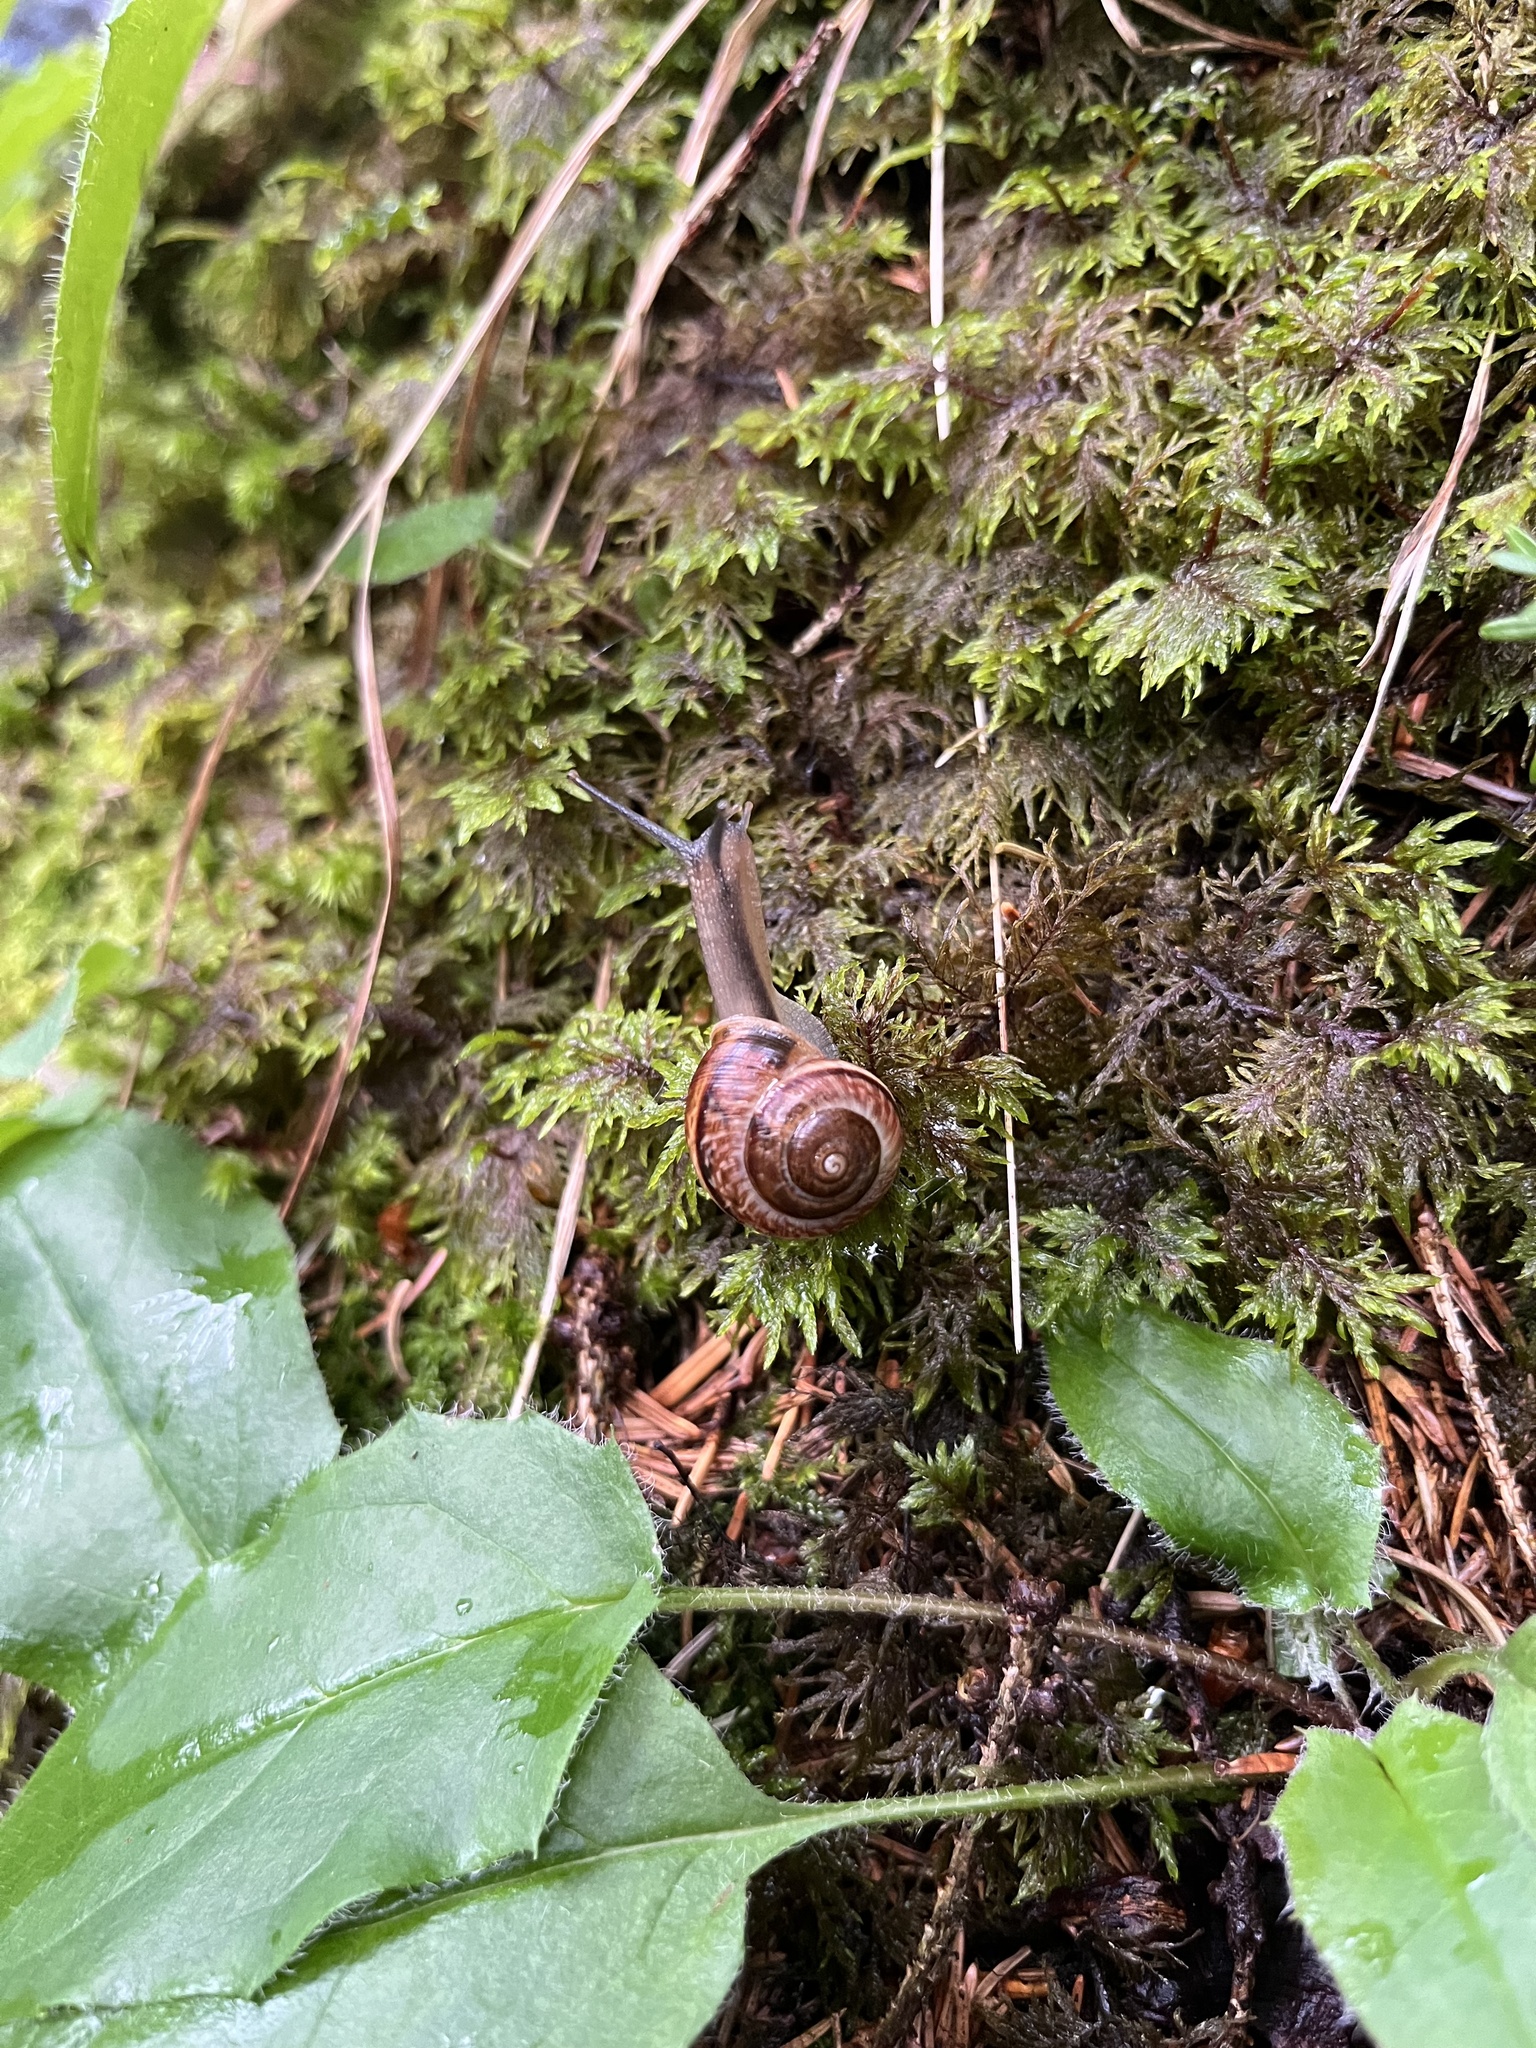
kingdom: Animalia
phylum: Mollusca
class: Gastropoda
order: Stylommatophora
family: Helicidae
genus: Arianta
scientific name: Arianta arbustorum
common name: Copse snail
